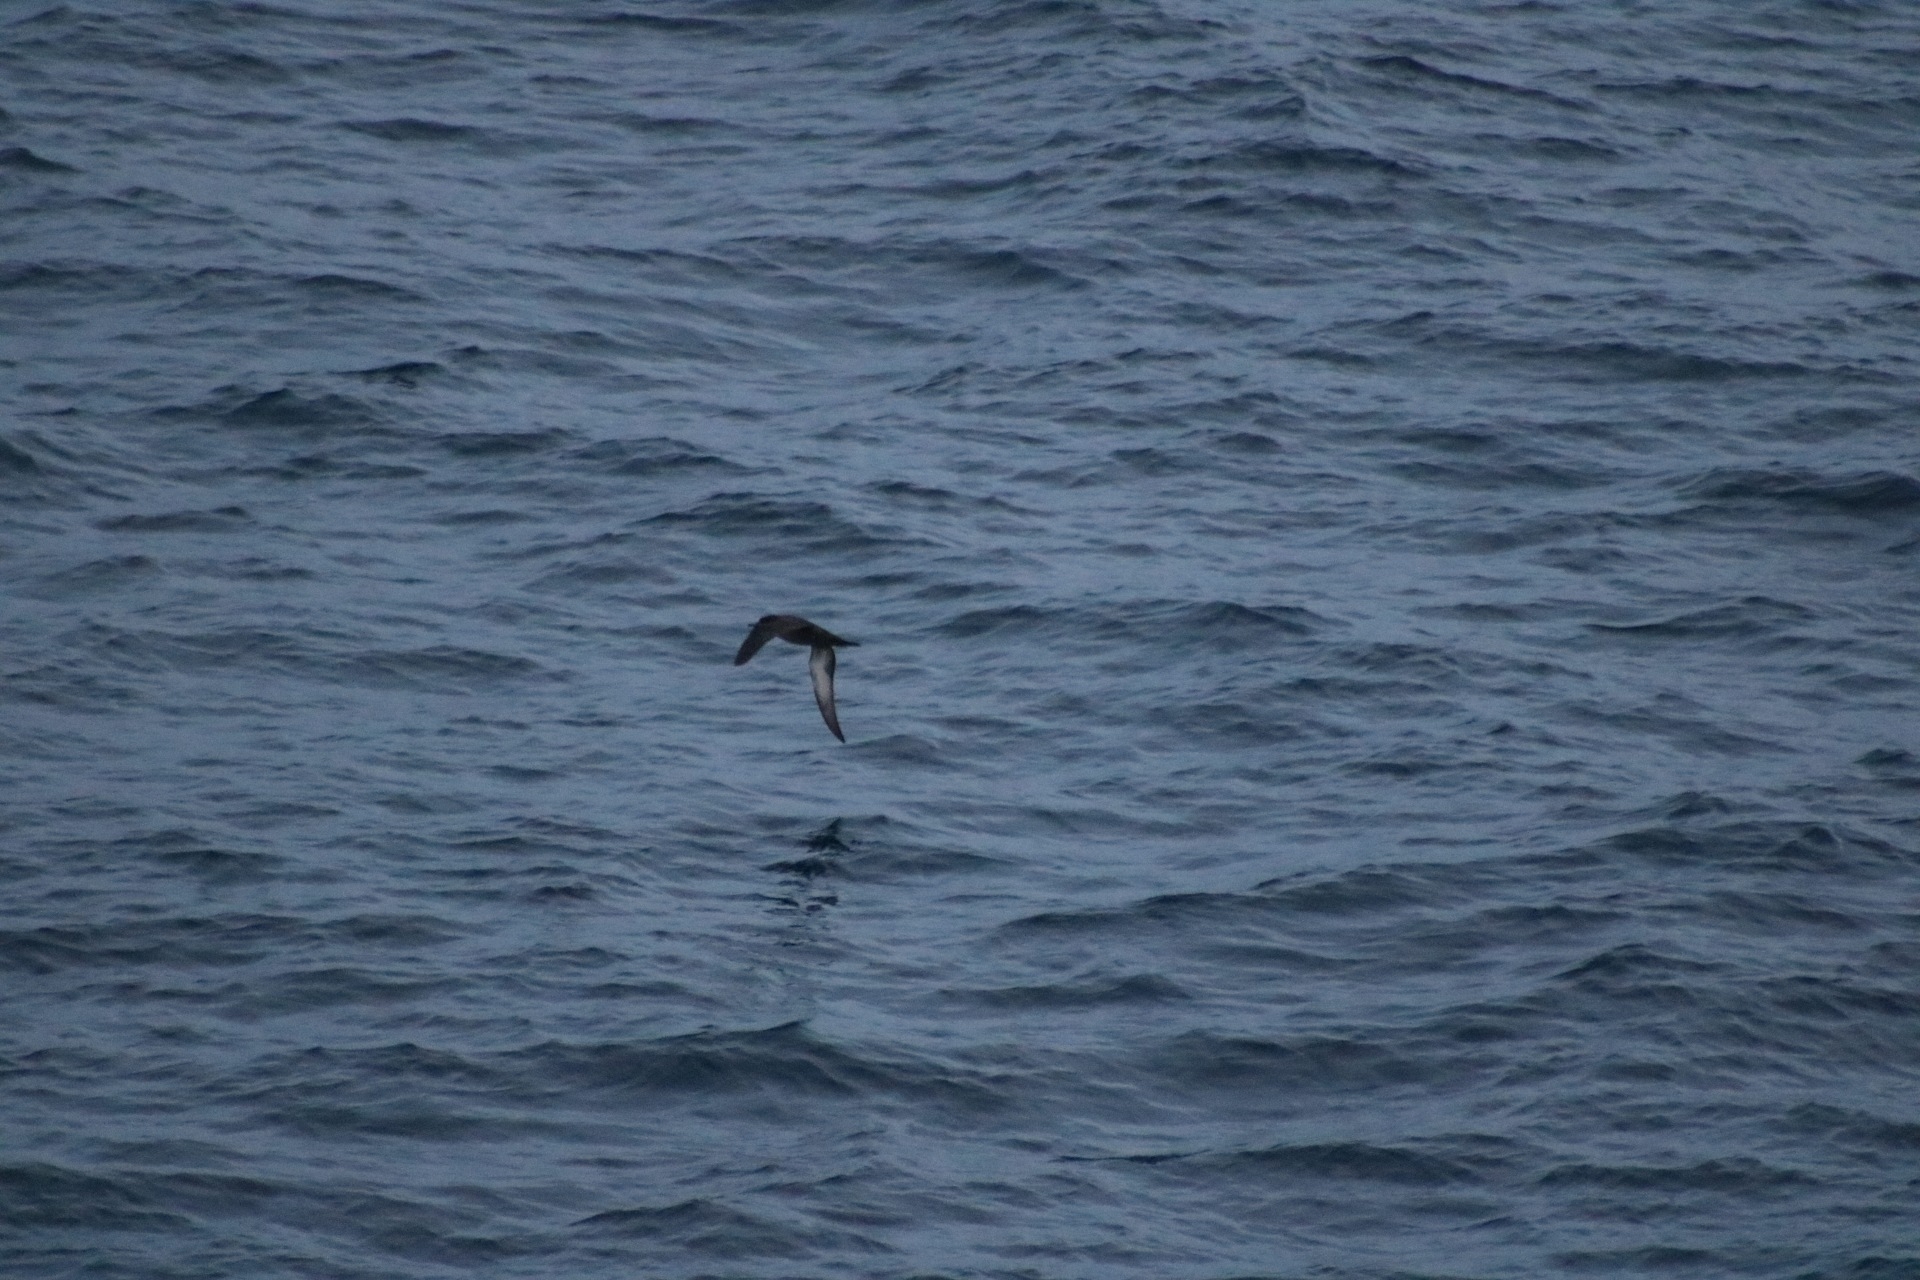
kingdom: Animalia
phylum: Chordata
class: Aves
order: Procellariiformes
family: Procellariidae
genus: Puffinus
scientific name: Puffinus griseus
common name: Sooty shearwater
